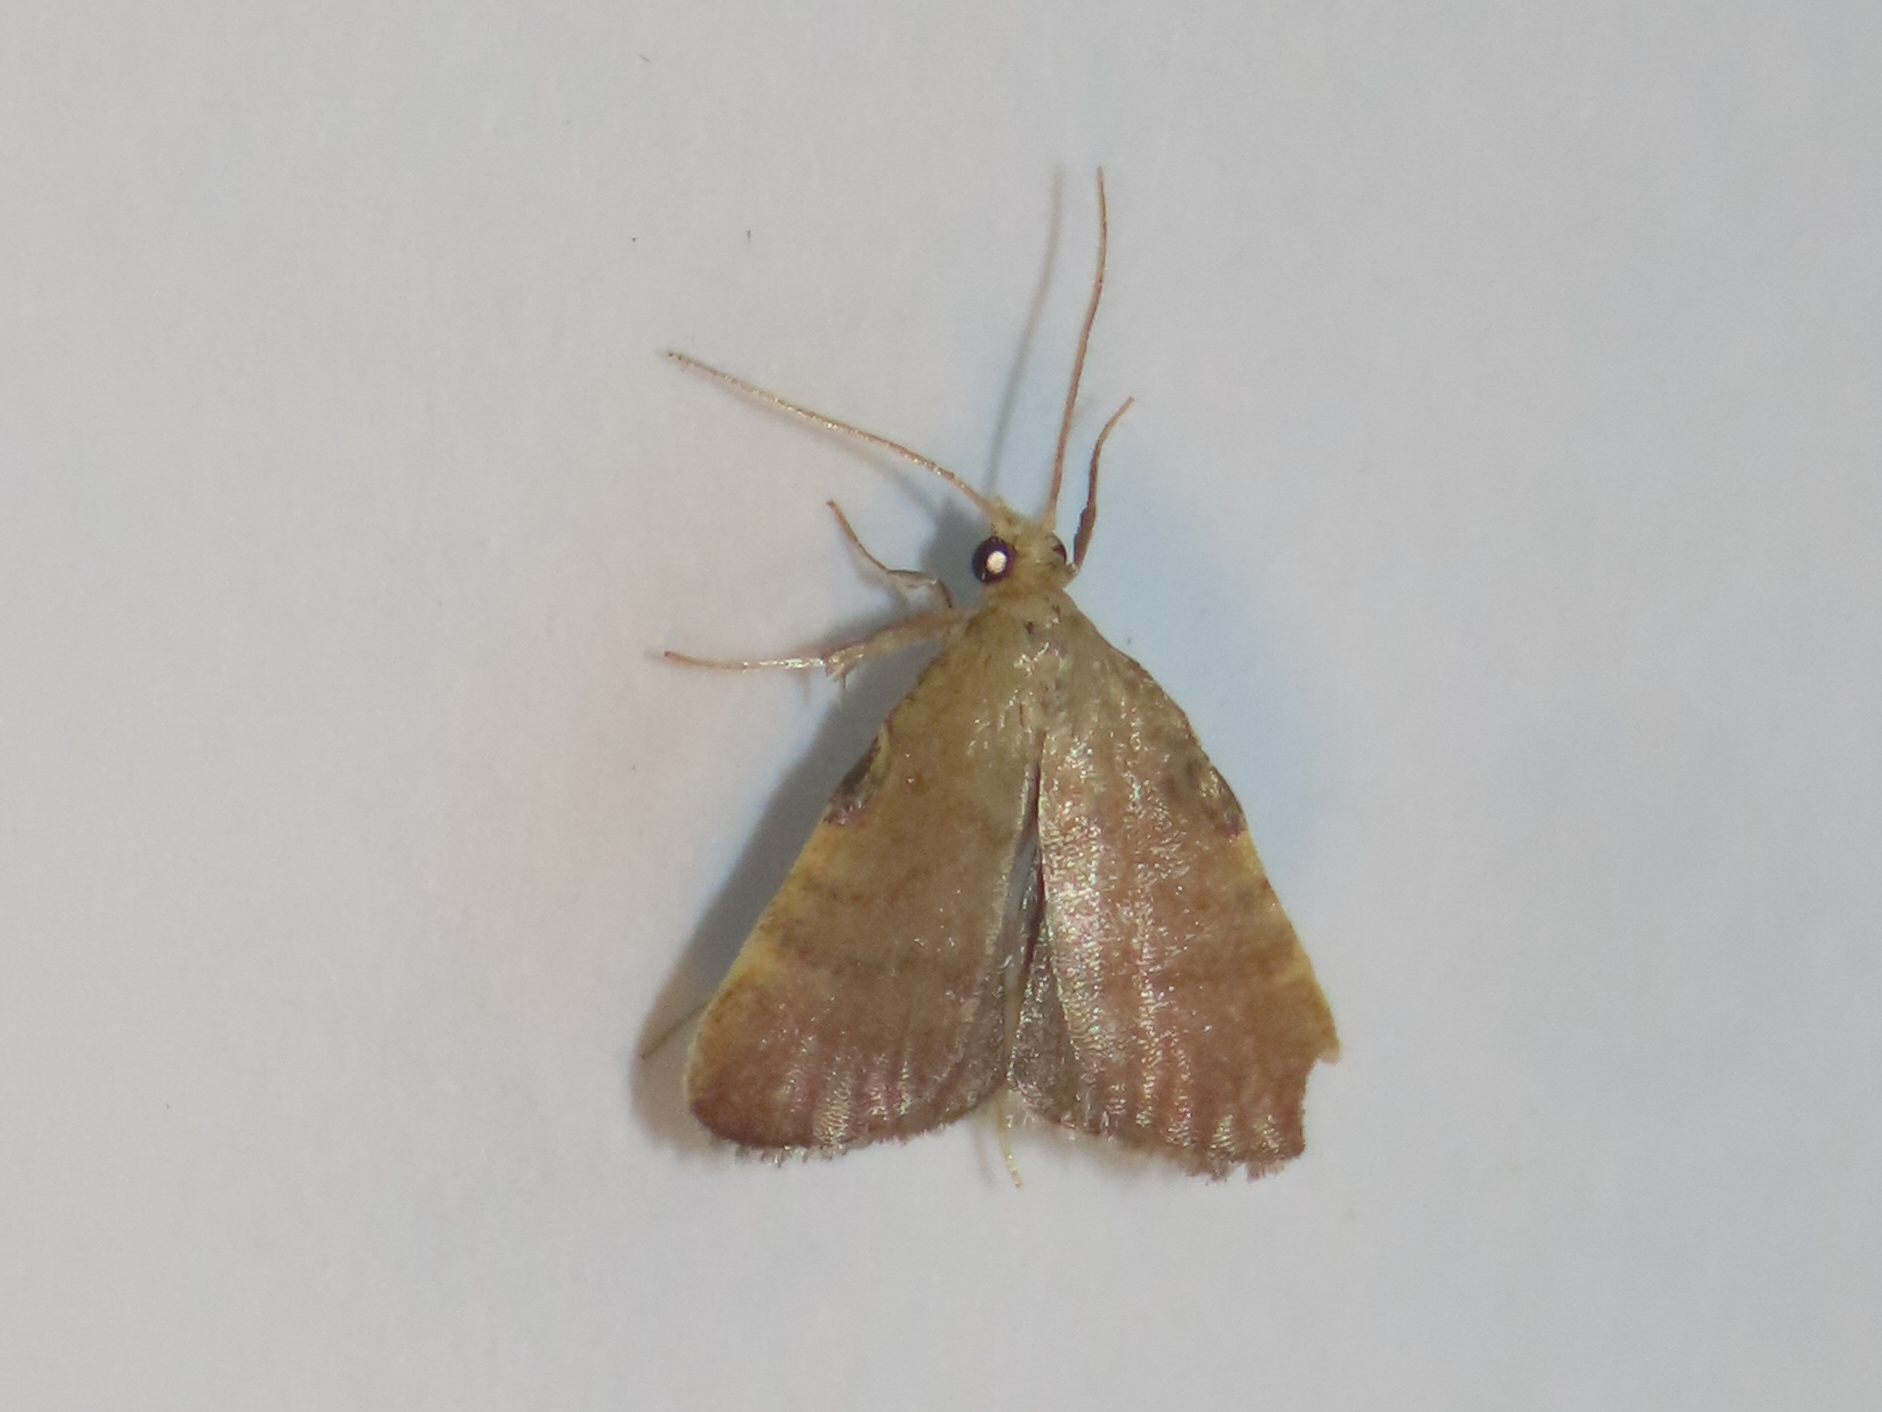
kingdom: Animalia
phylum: Arthropoda
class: Insecta
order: Lepidoptera
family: Pyralidae
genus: Condylolomia
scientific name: Condylolomia participialis
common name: Drab condylolomia moth
